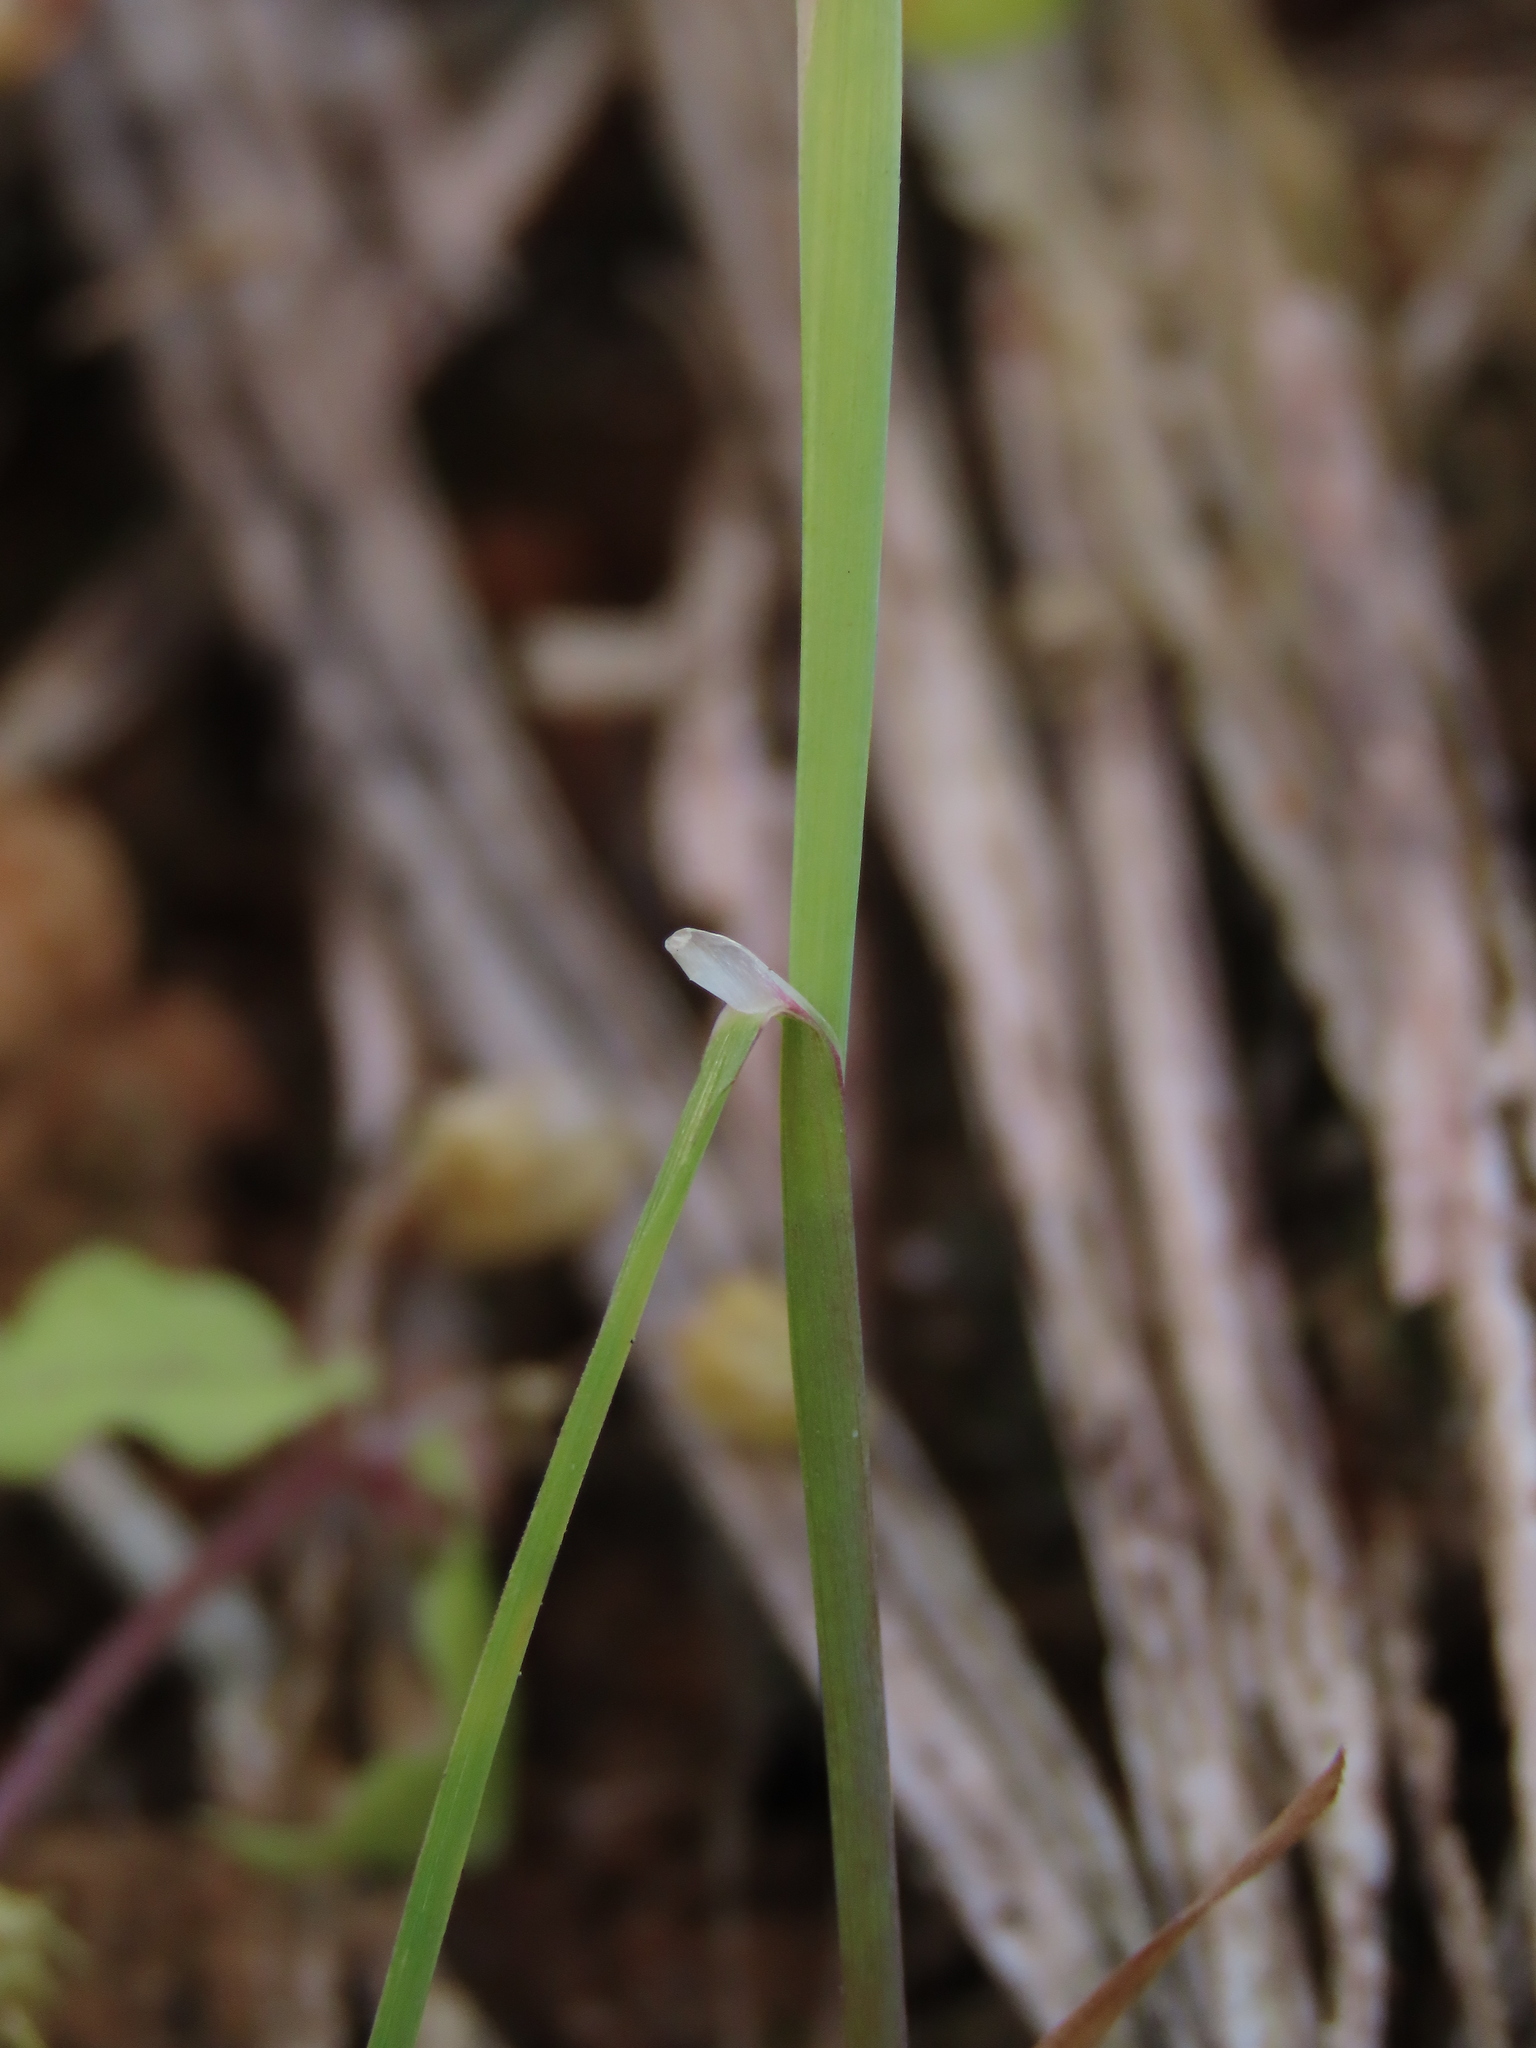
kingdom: Plantae
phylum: Tracheophyta
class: Liliopsida
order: Poales
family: Poaceae
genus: Alopecurus
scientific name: Alopecurus aequalis
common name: Orange foxtail
